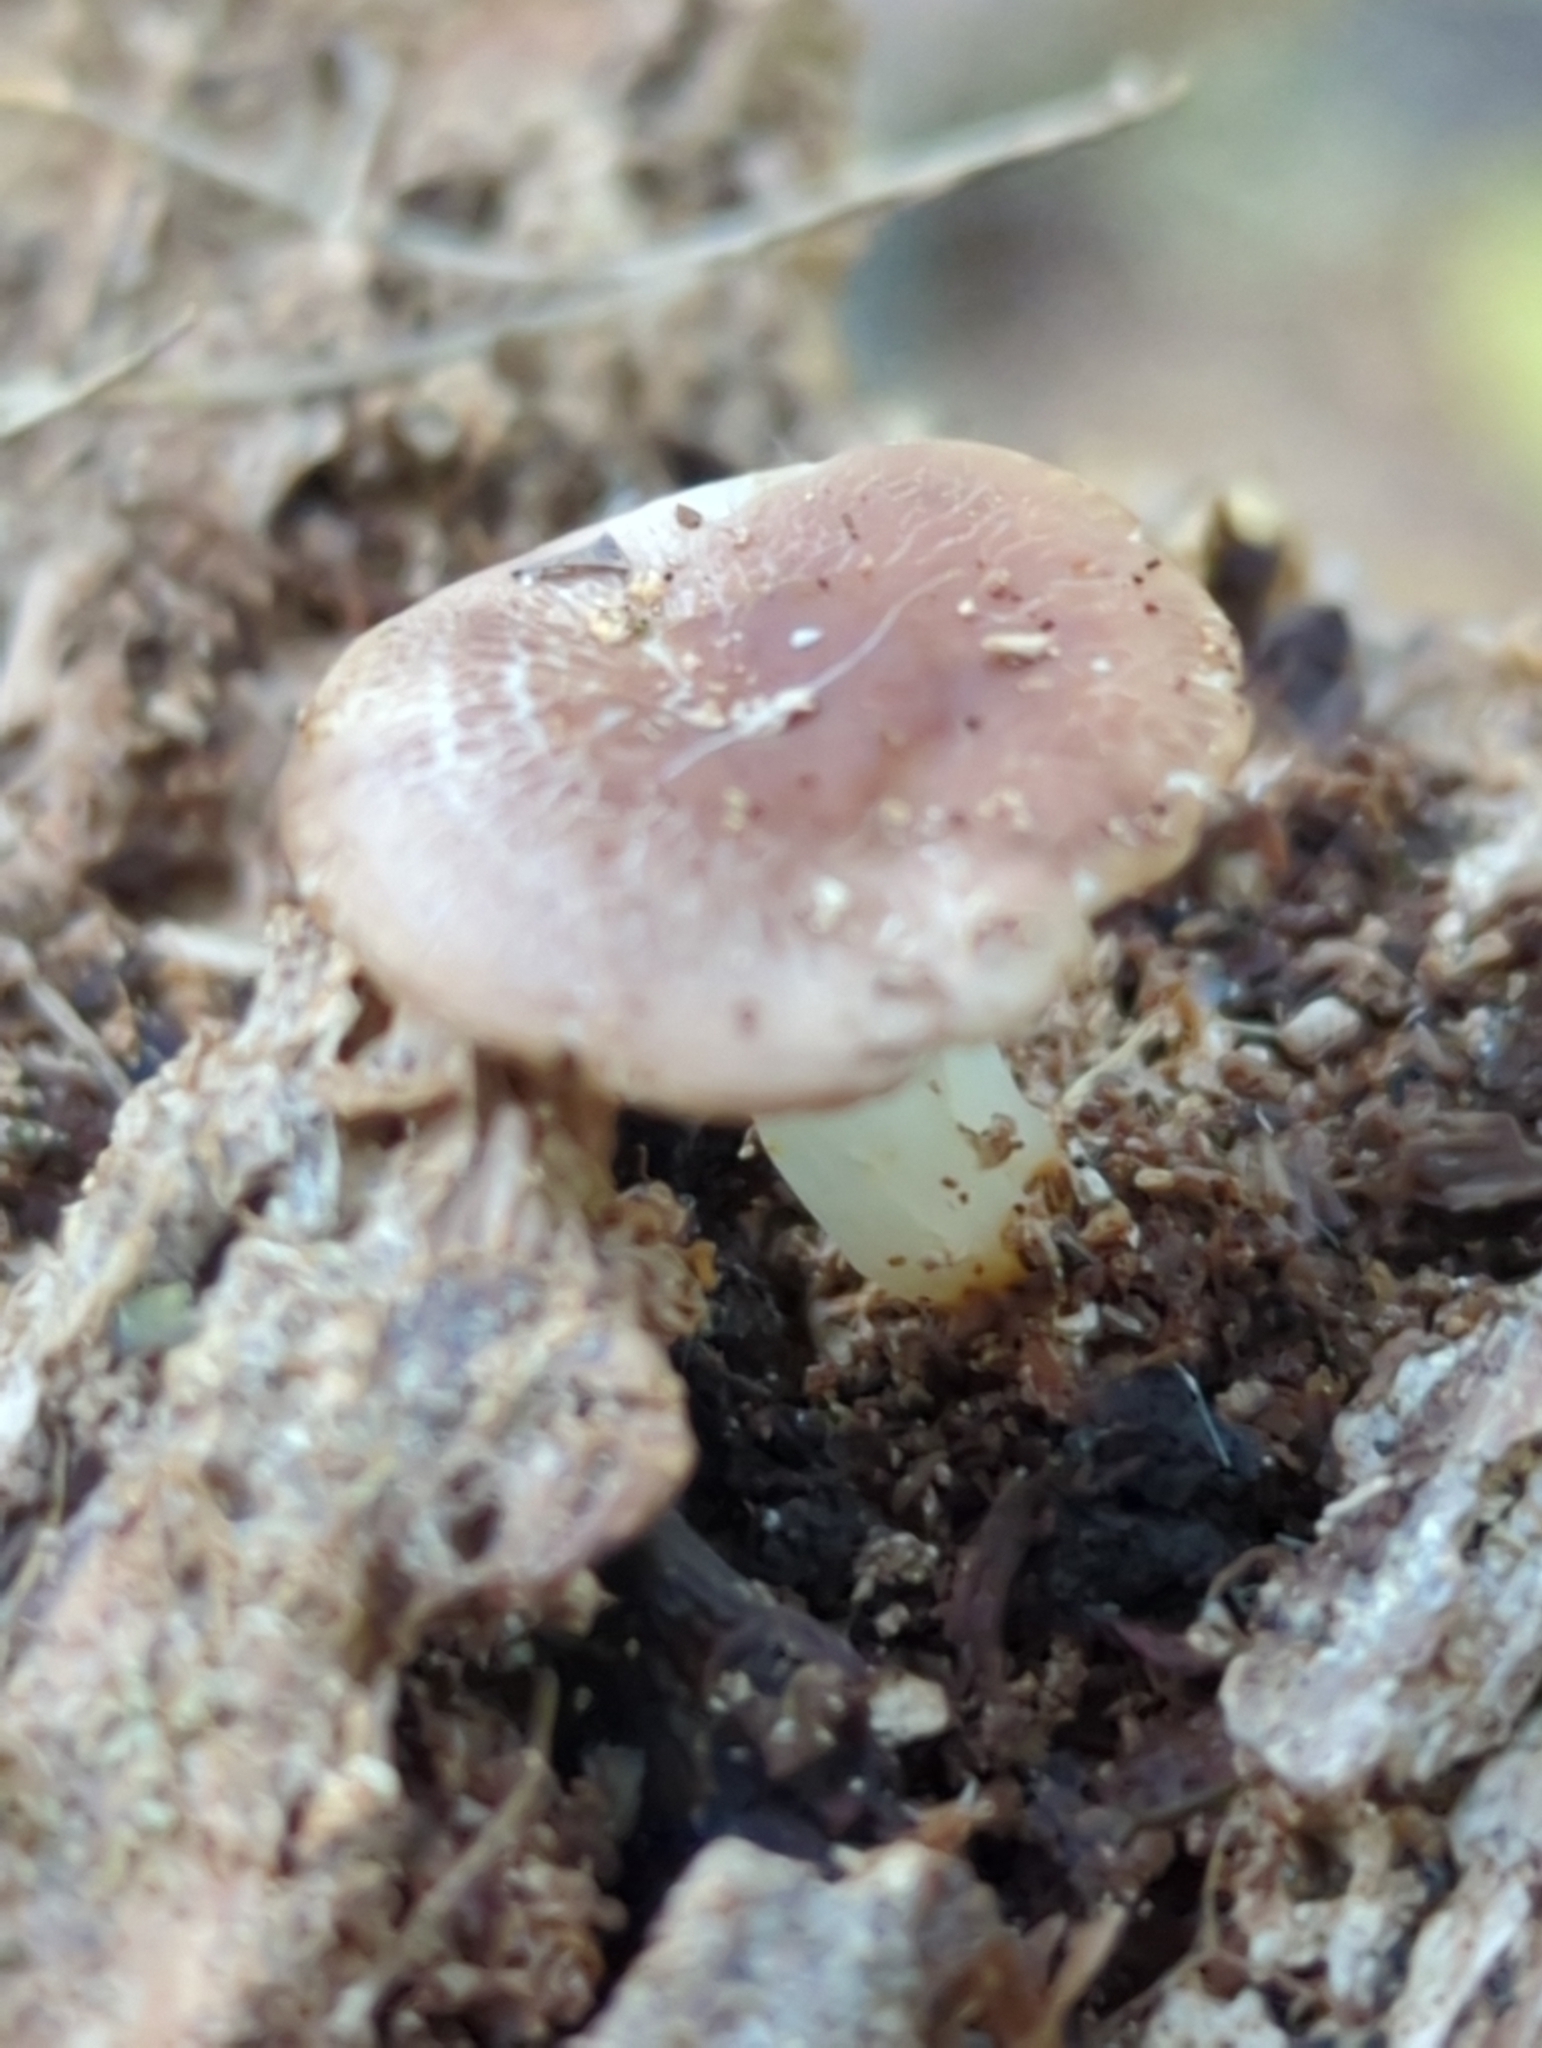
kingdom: Fungi
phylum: Basidiomycota
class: Agaricomycetes
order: Agaricales
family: Mycenaceae
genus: Mycena
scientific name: Mycena pura
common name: Lilac bonnet
